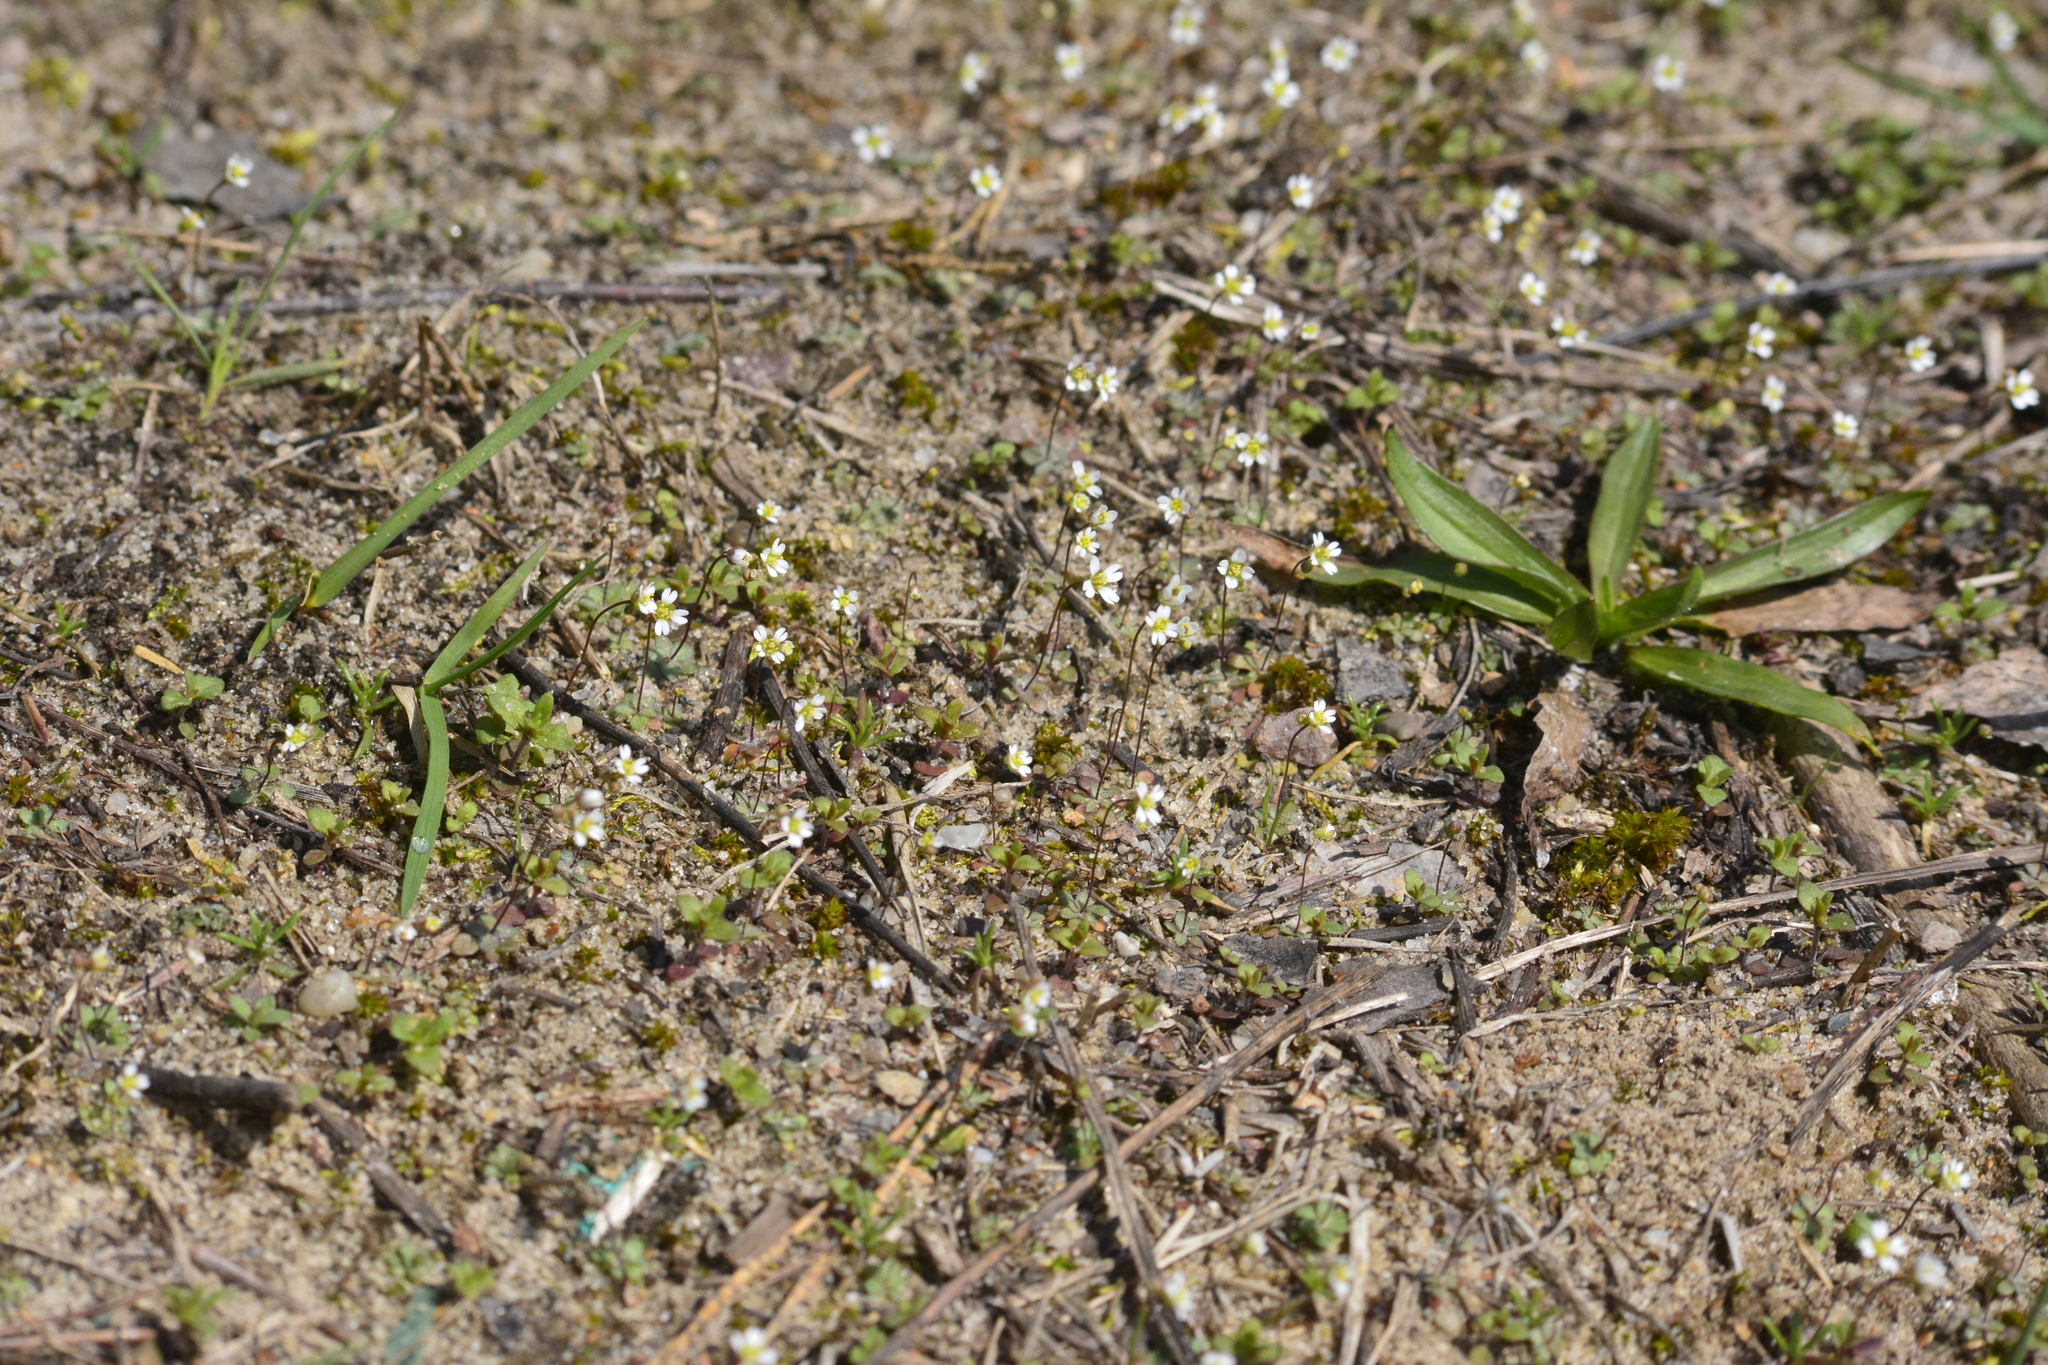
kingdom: Plantae
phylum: Tracheophyta
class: Magnoliopsida
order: Brassicales
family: Brassicaceae
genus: Draba
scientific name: Draba verna
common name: Spring draba
